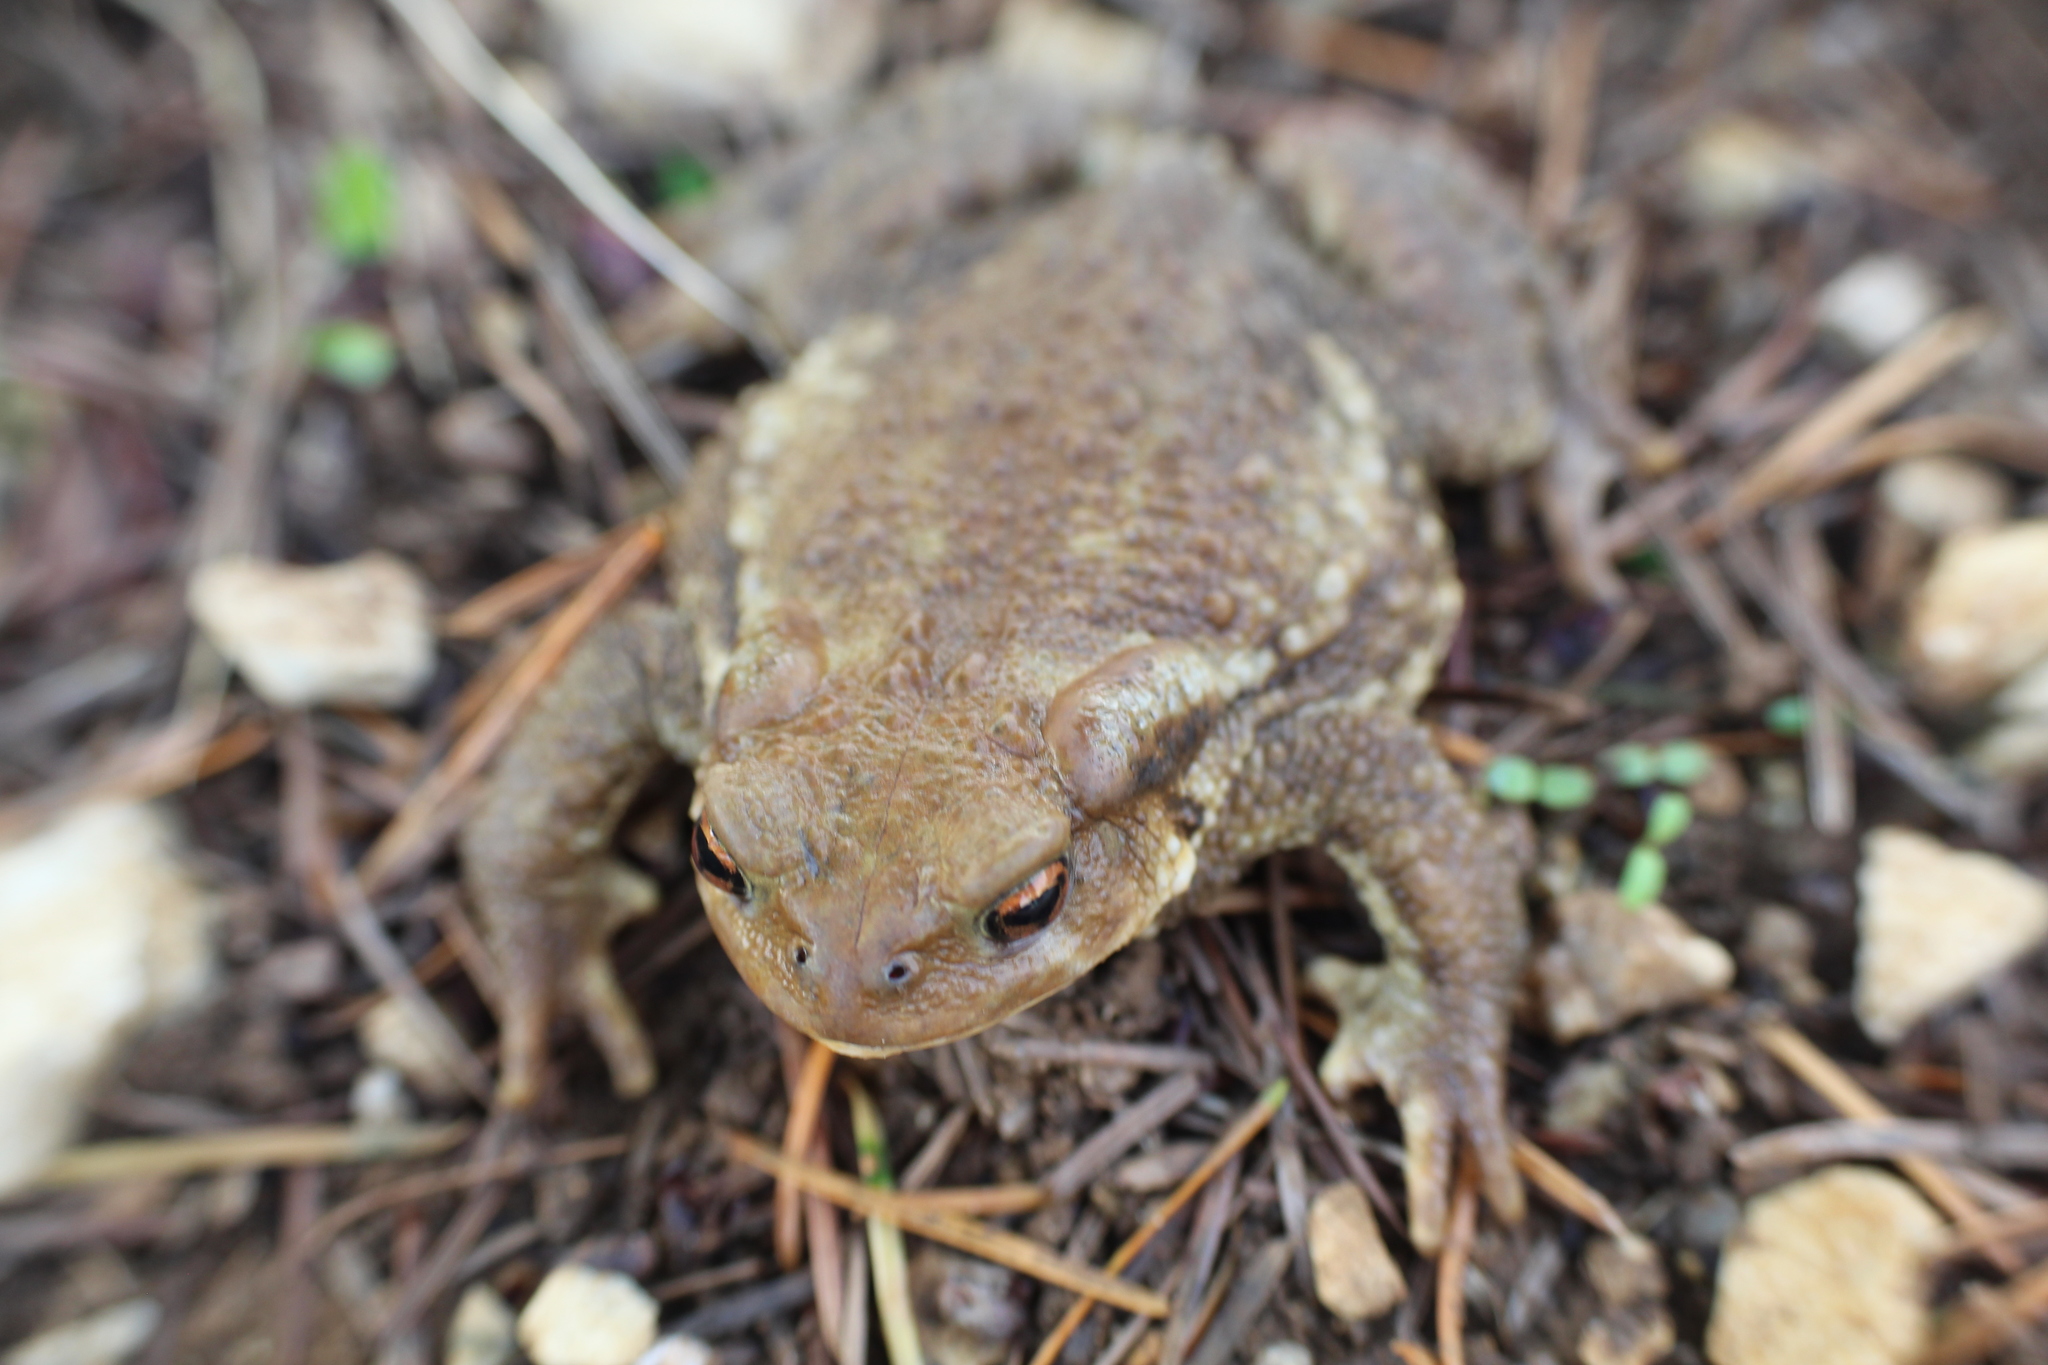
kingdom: Animalia
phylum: Chordata
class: Amphibia
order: Anura
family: Bufonidae
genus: Bufo
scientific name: Bufo spinosus
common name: Western common toad
